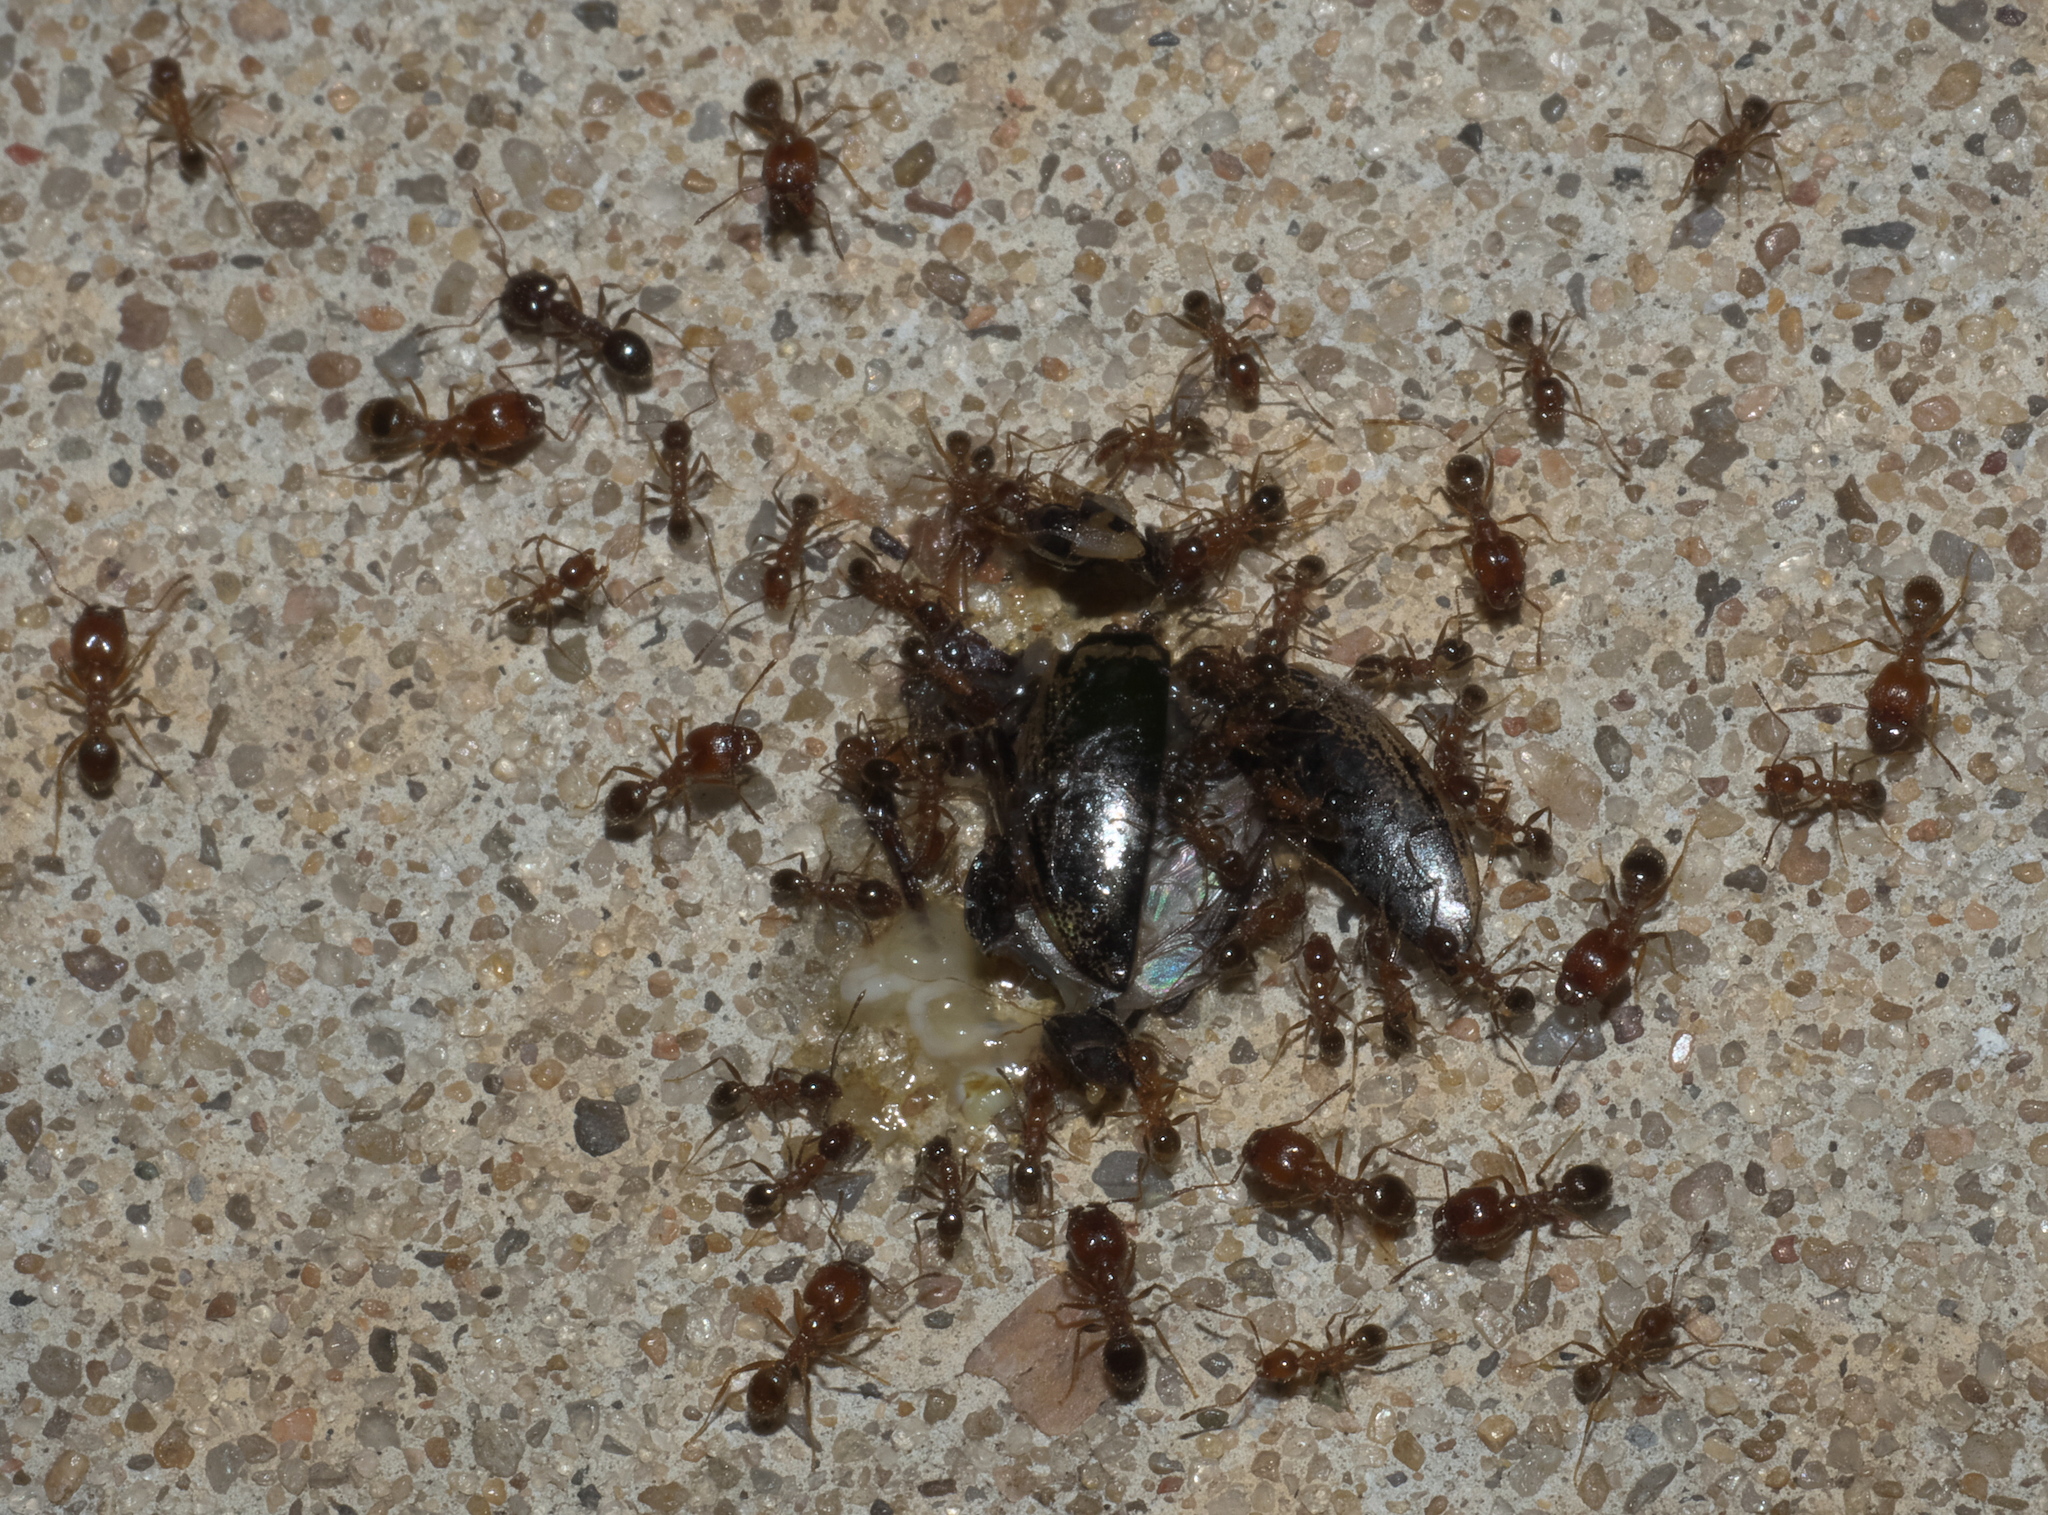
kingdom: Animalia
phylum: Arthropoda
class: Insecta
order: Hymenoptera
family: Formicidae
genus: Pheidole
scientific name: Pheidole dentata
